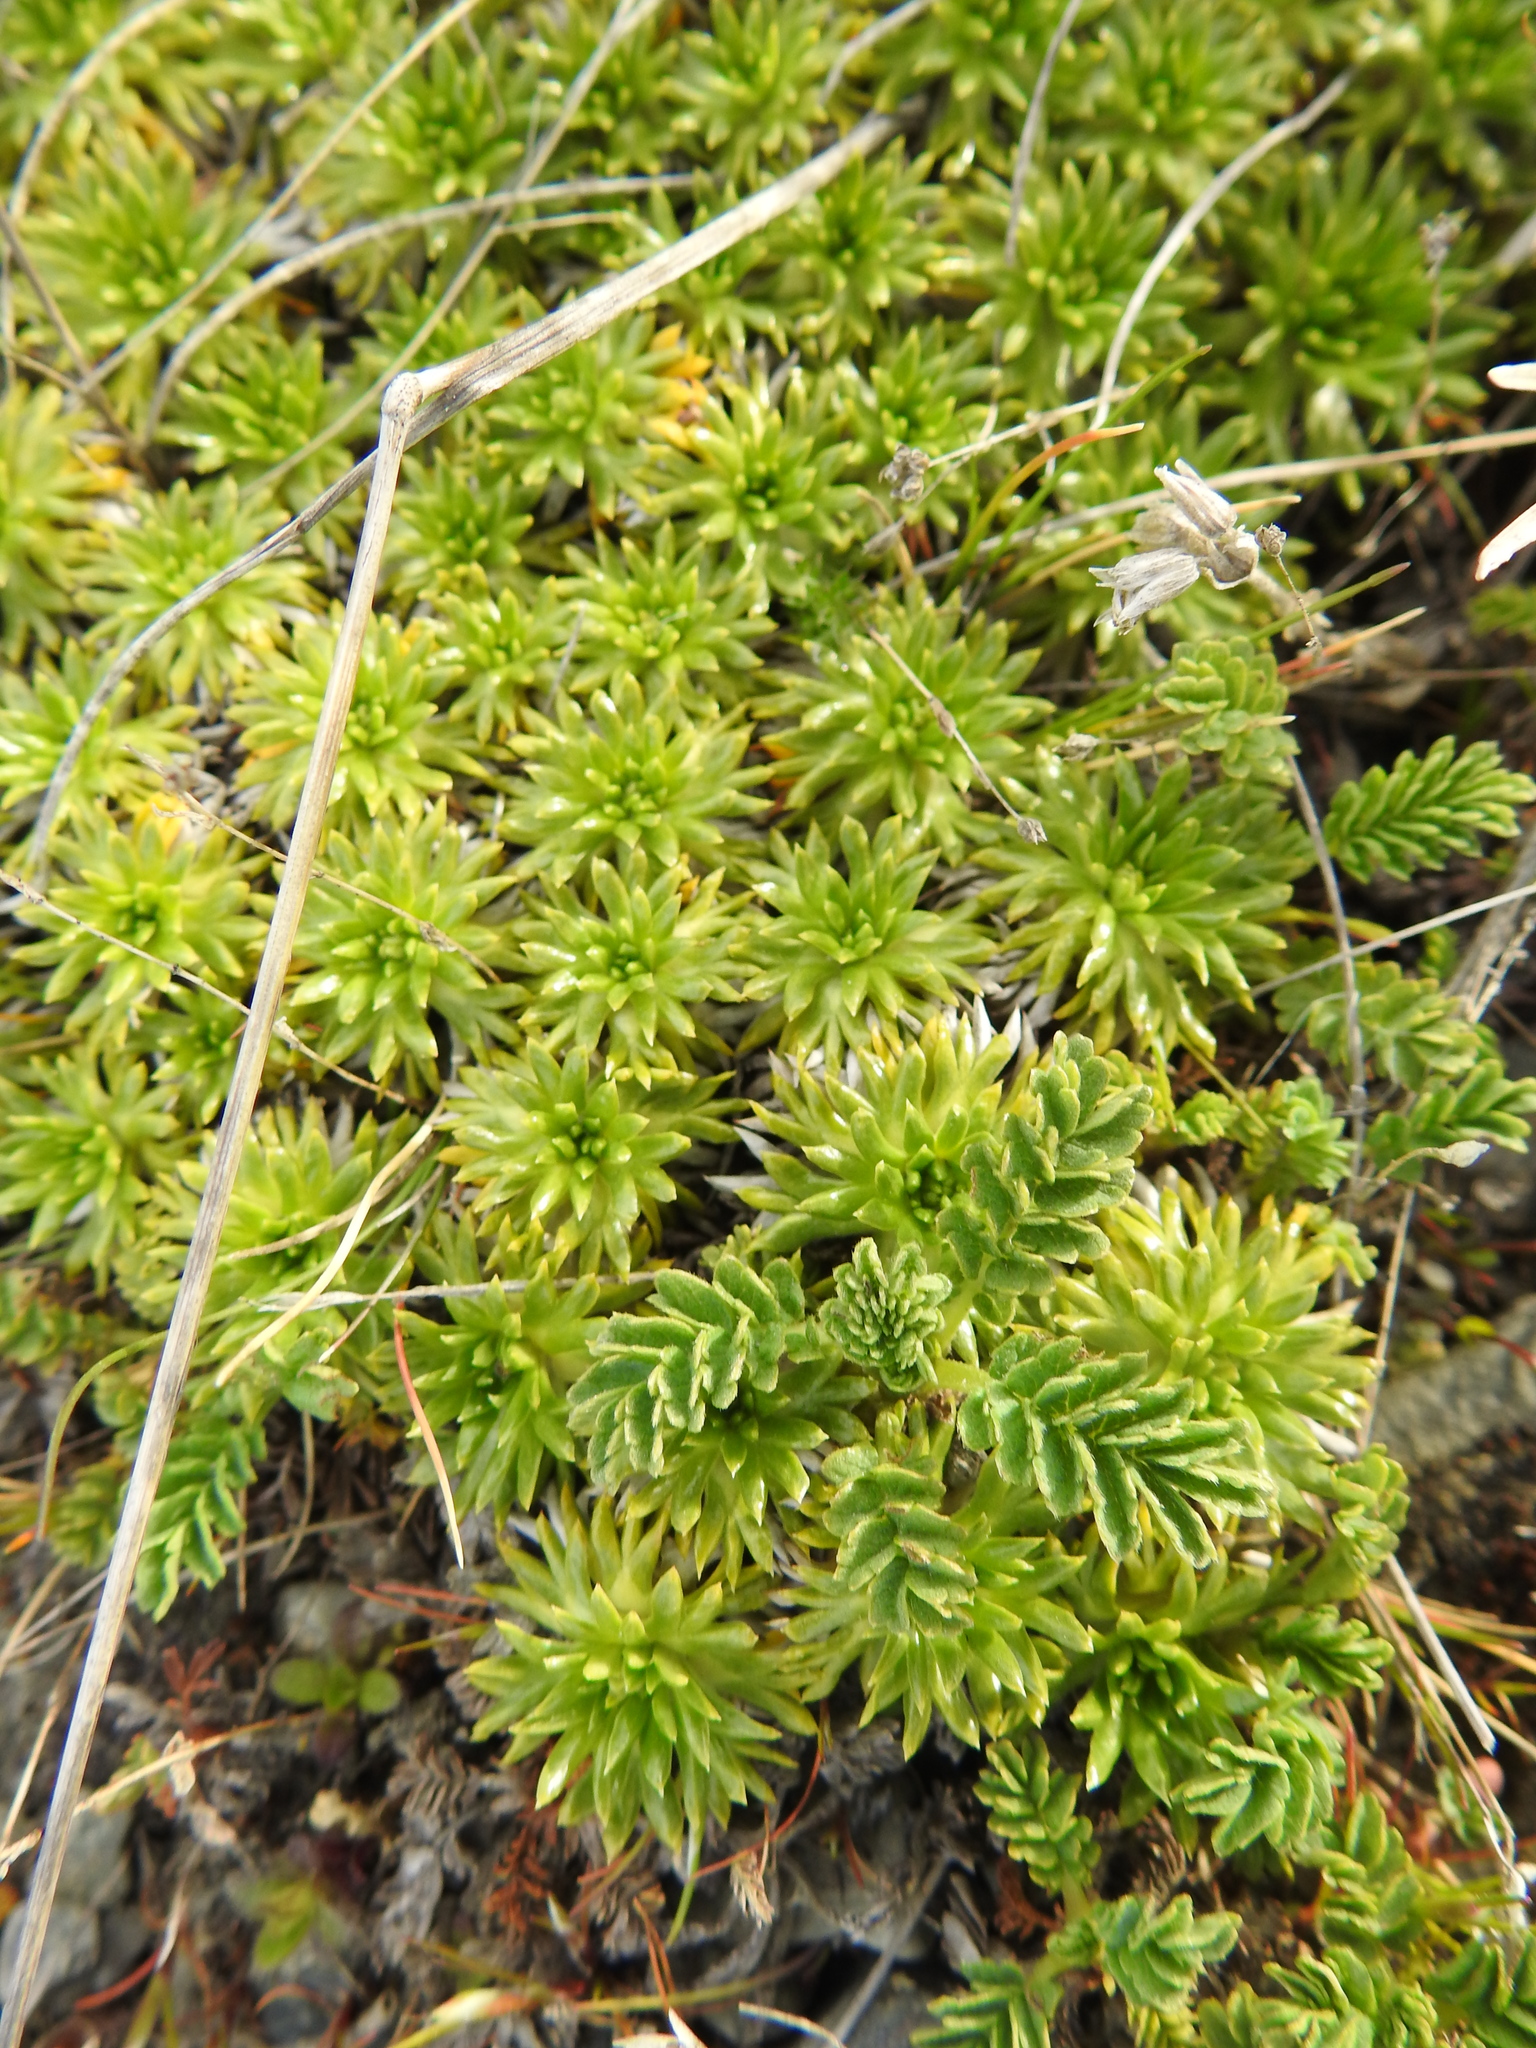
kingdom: Plantae
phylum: Tracheophyta
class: Magnoliopsida
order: Apiales
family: Apiaceae
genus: Azorella
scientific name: Azorella trifurcata
